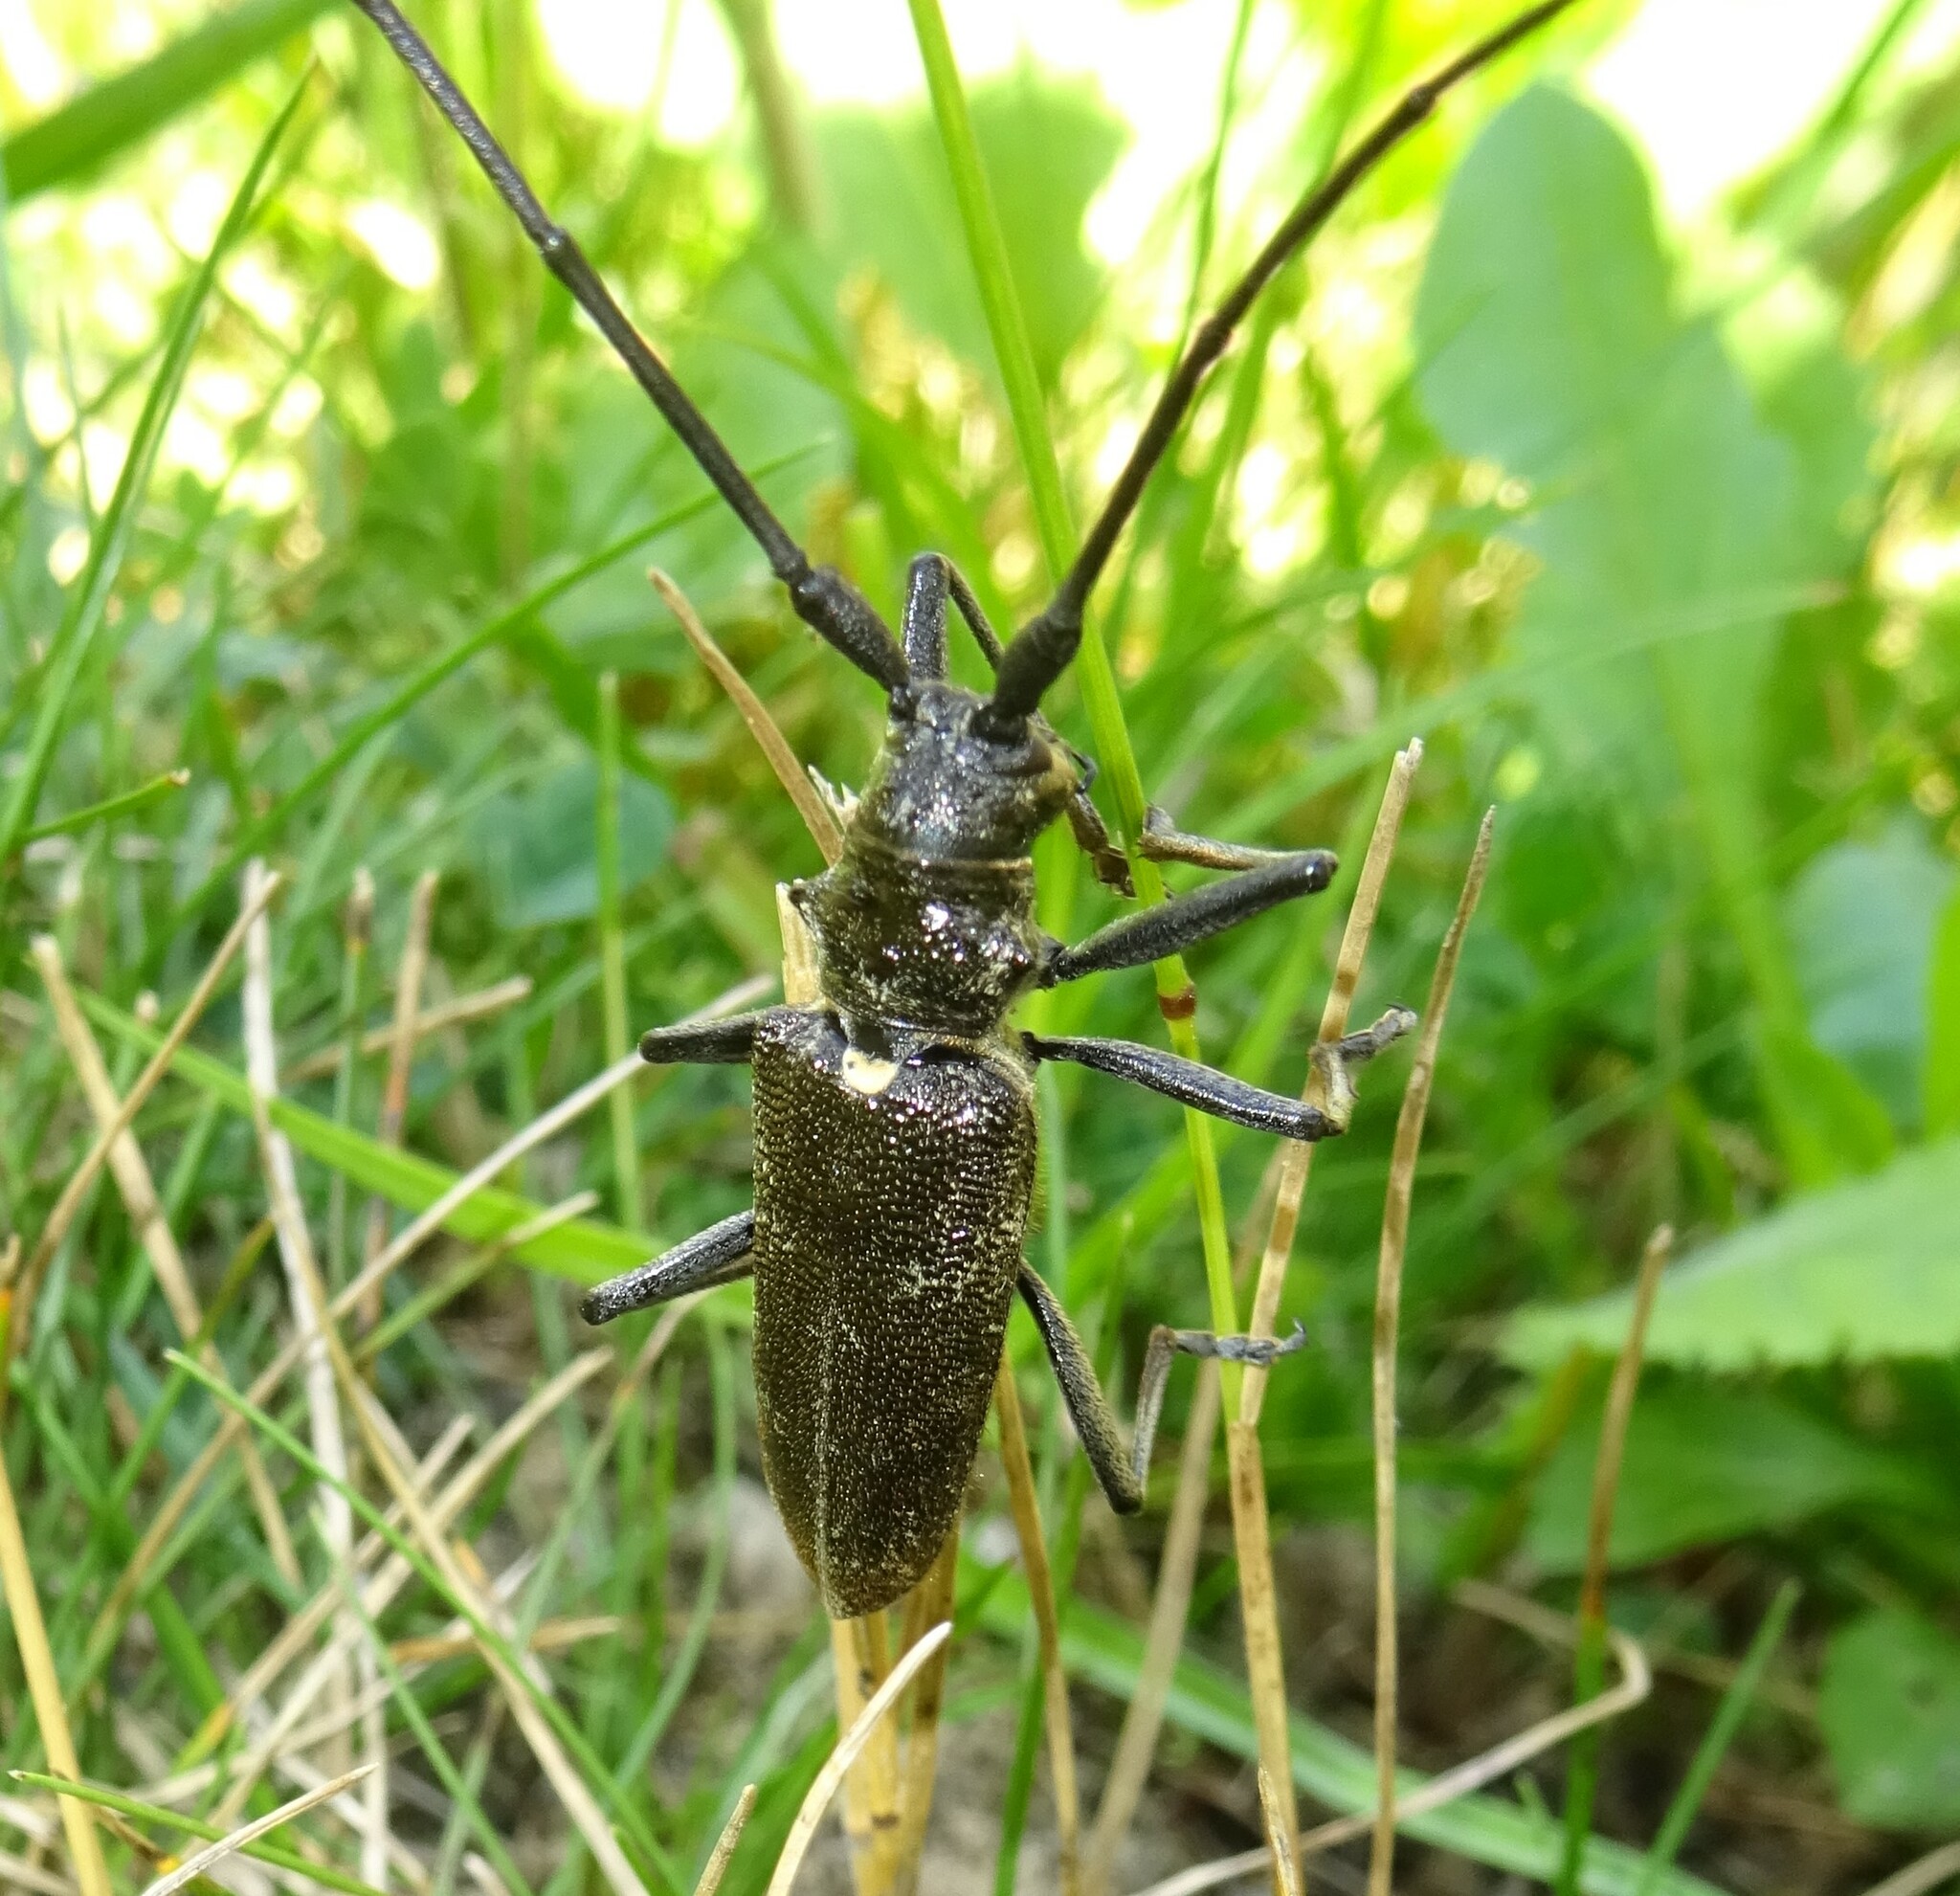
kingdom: Animalia
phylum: Arthropoda
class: Insecta
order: Coleoptera
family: Cerambycidae
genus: Monochamus
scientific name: Monochamus sartor
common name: Pine sawyer
